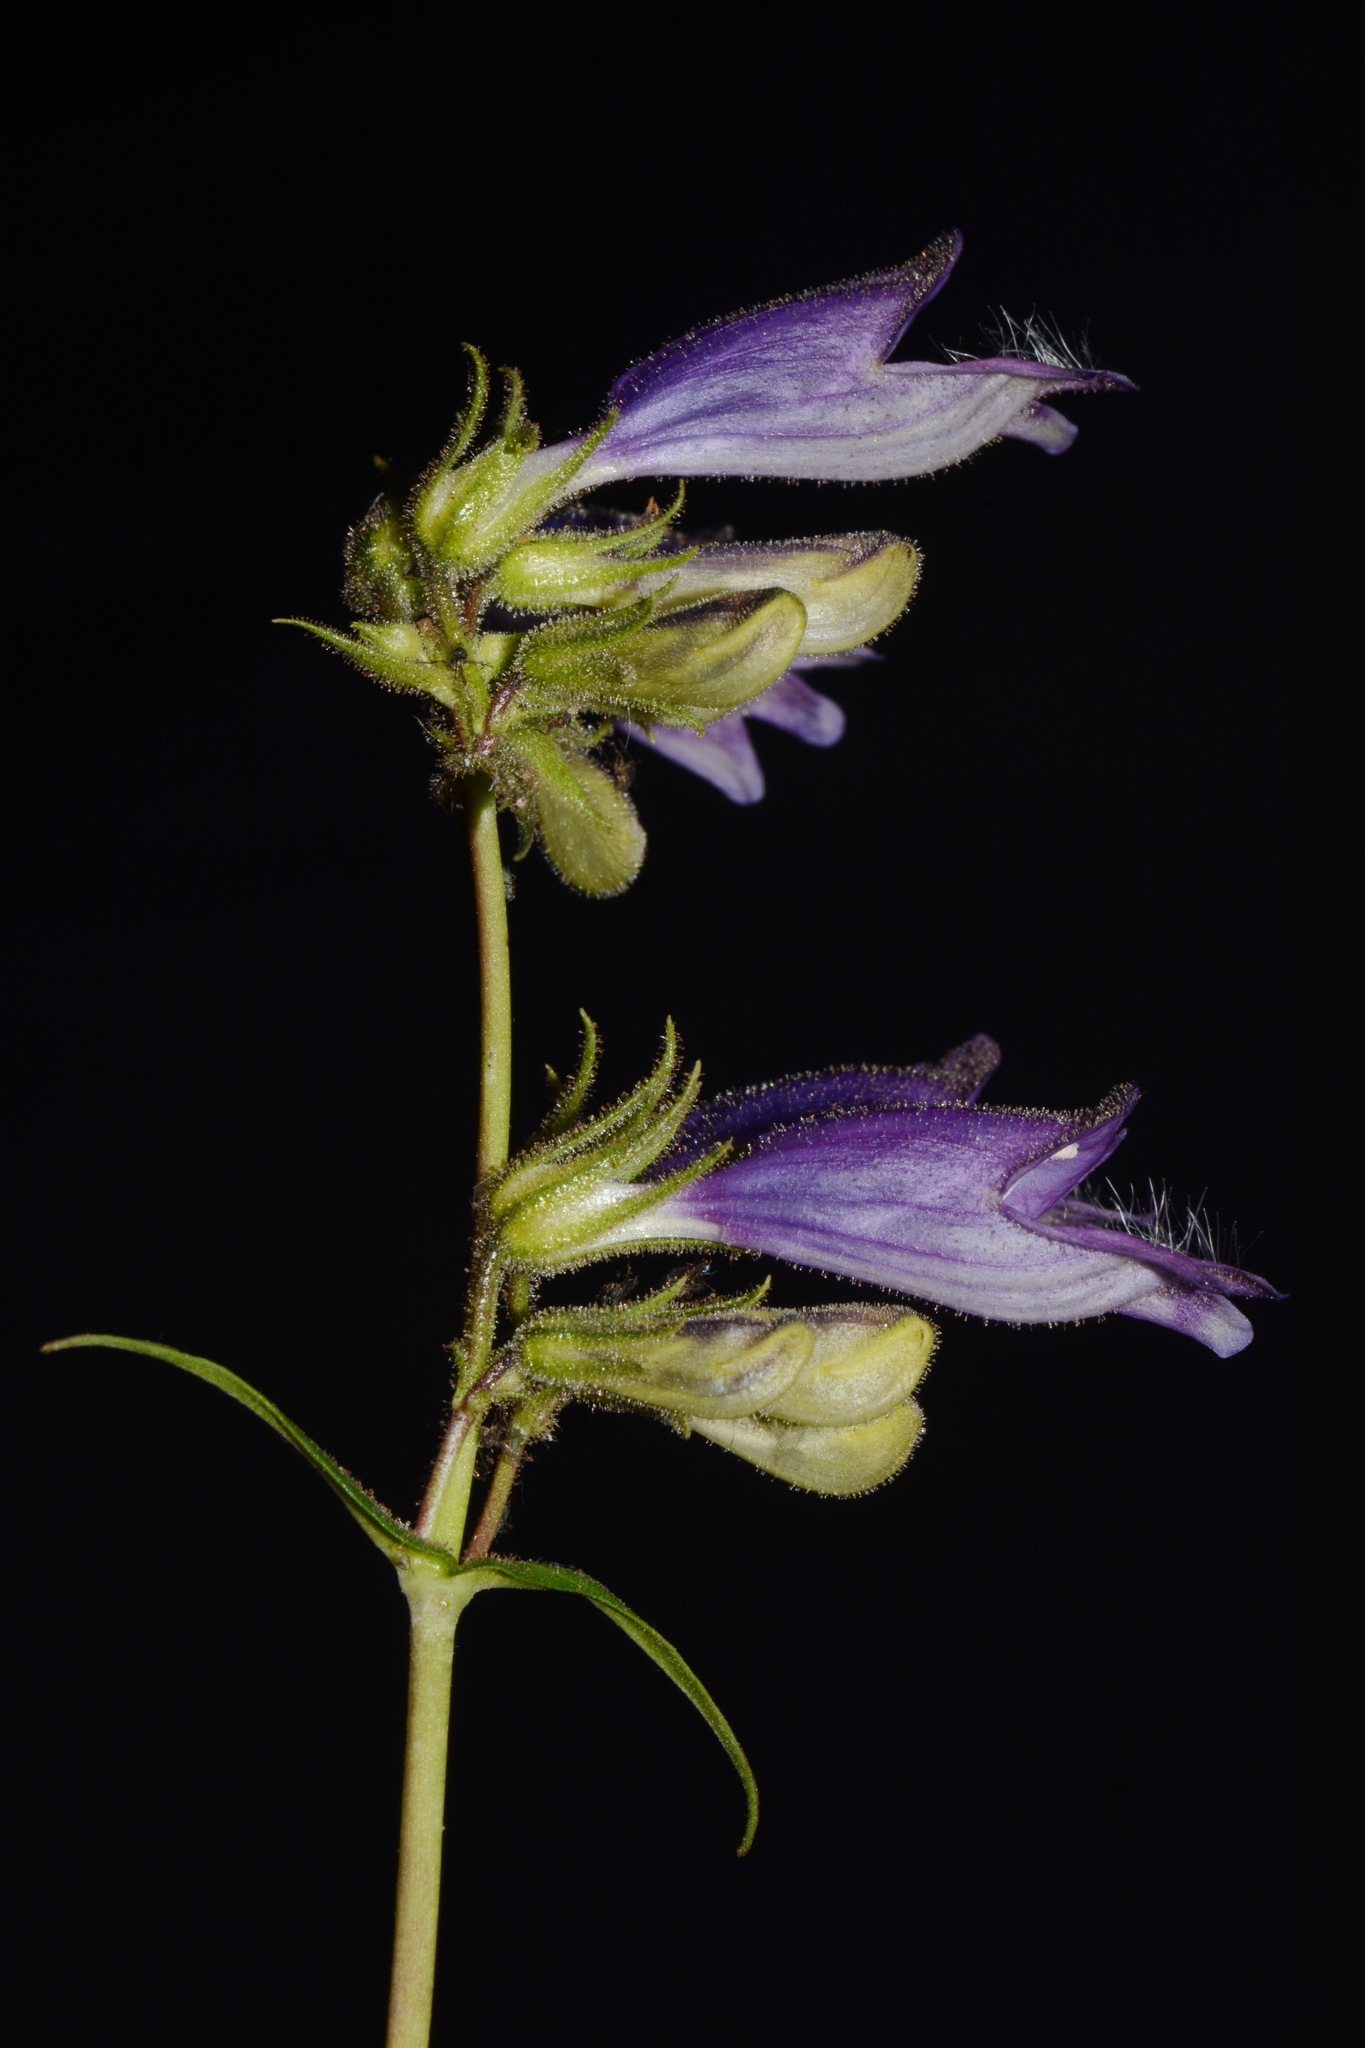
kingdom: Plantae
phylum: Tracheophyta
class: Magnoliopsida
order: Lamiales
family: Plantaginaceae
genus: Penstemon
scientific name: Penstemon whippleanus
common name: Whipple's penstemon
